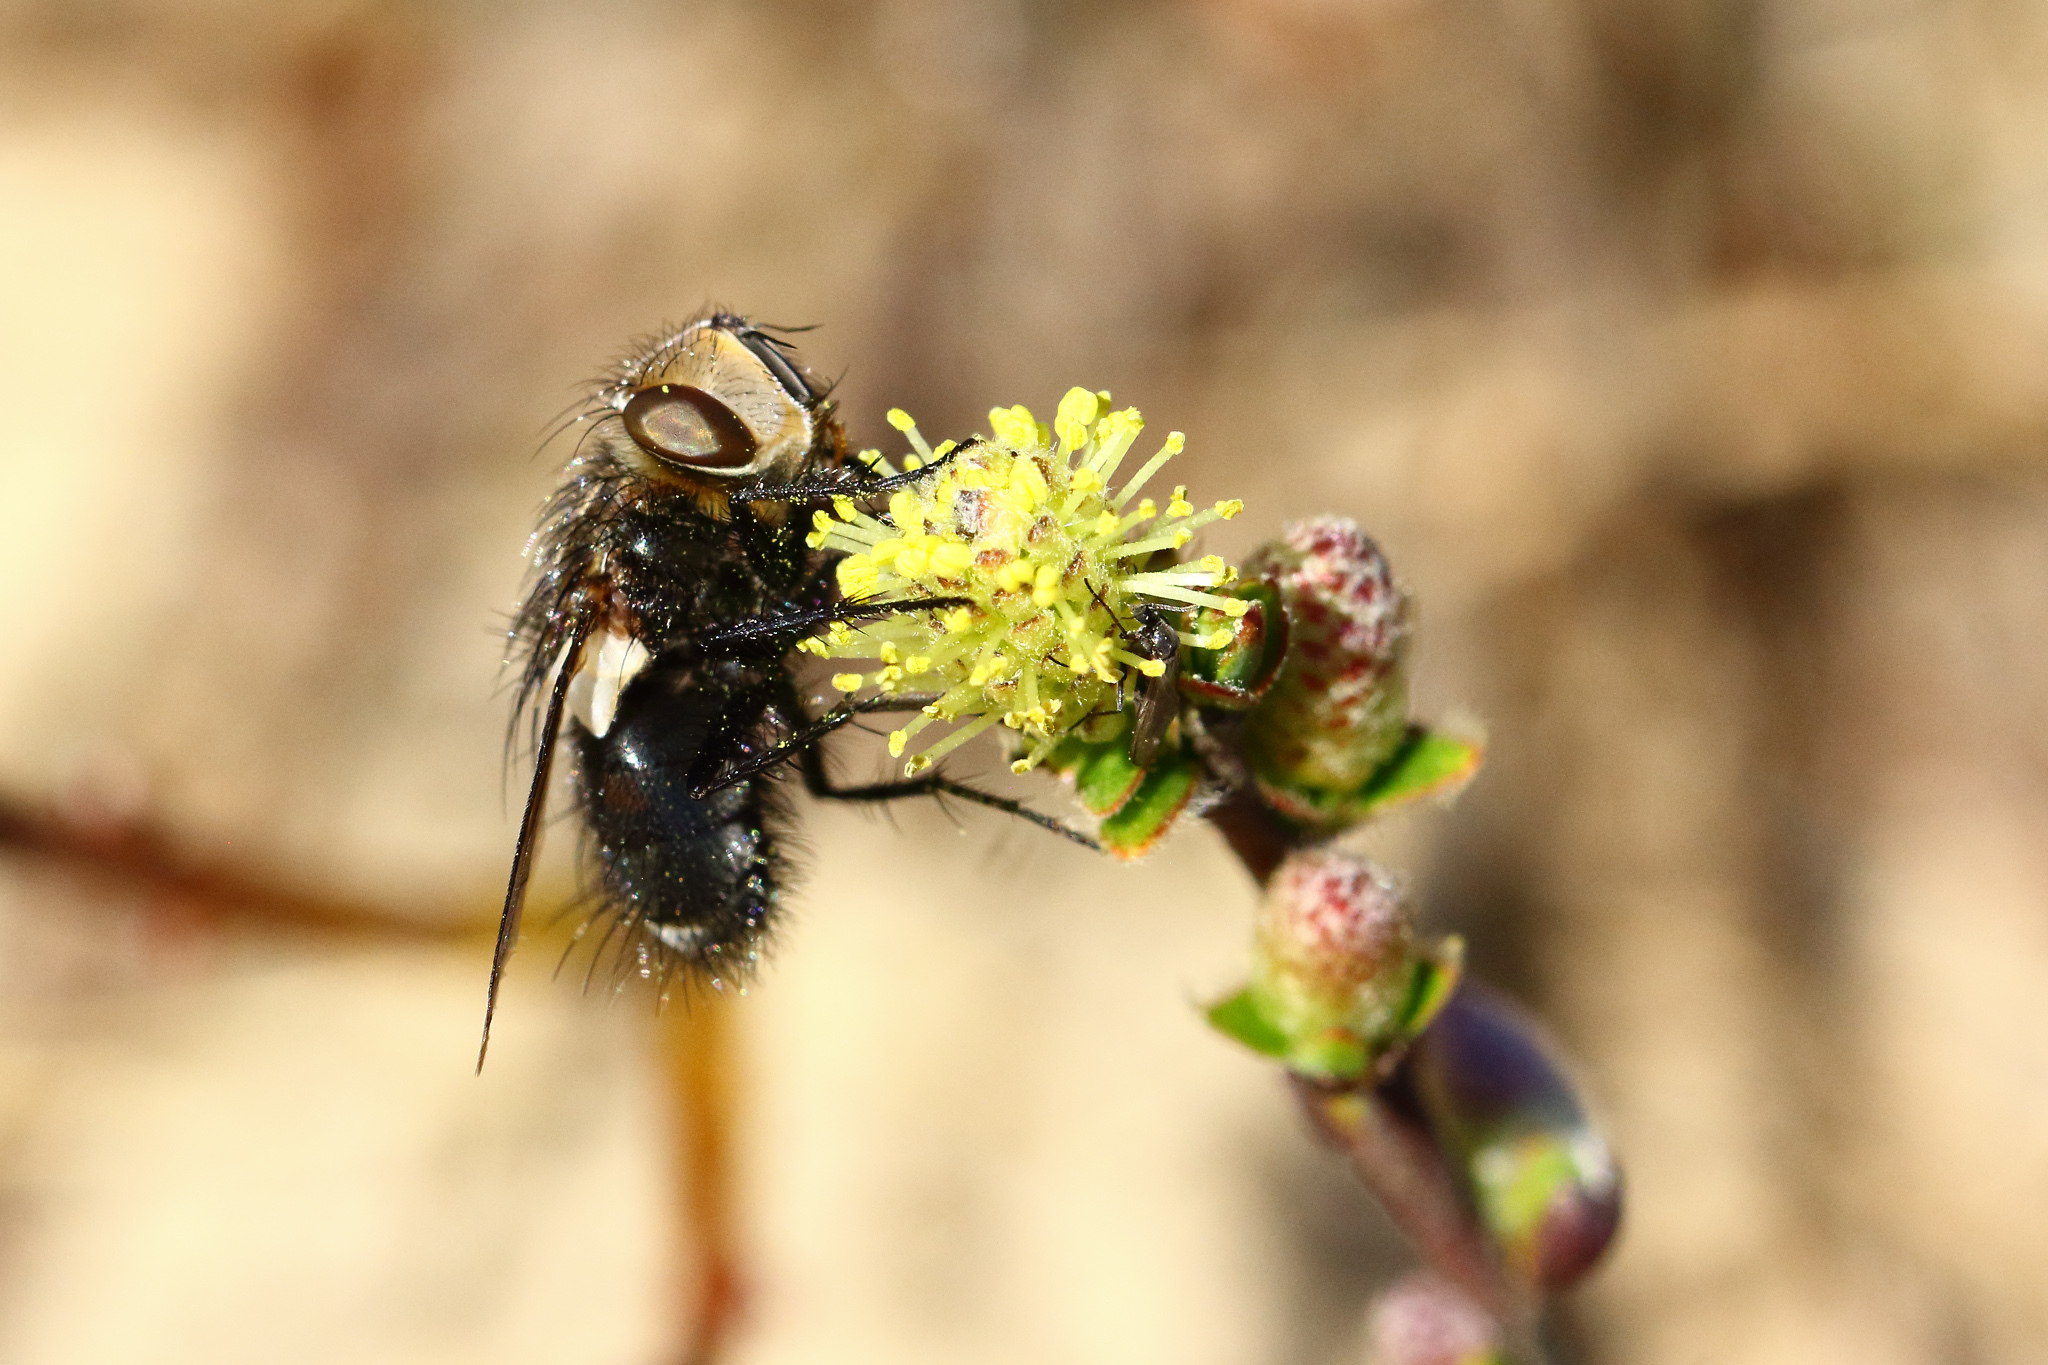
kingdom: Animalia
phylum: Arthropoda
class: Insecta
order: Diptera
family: Tachinidae
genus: Gonia
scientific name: Gonia picea
